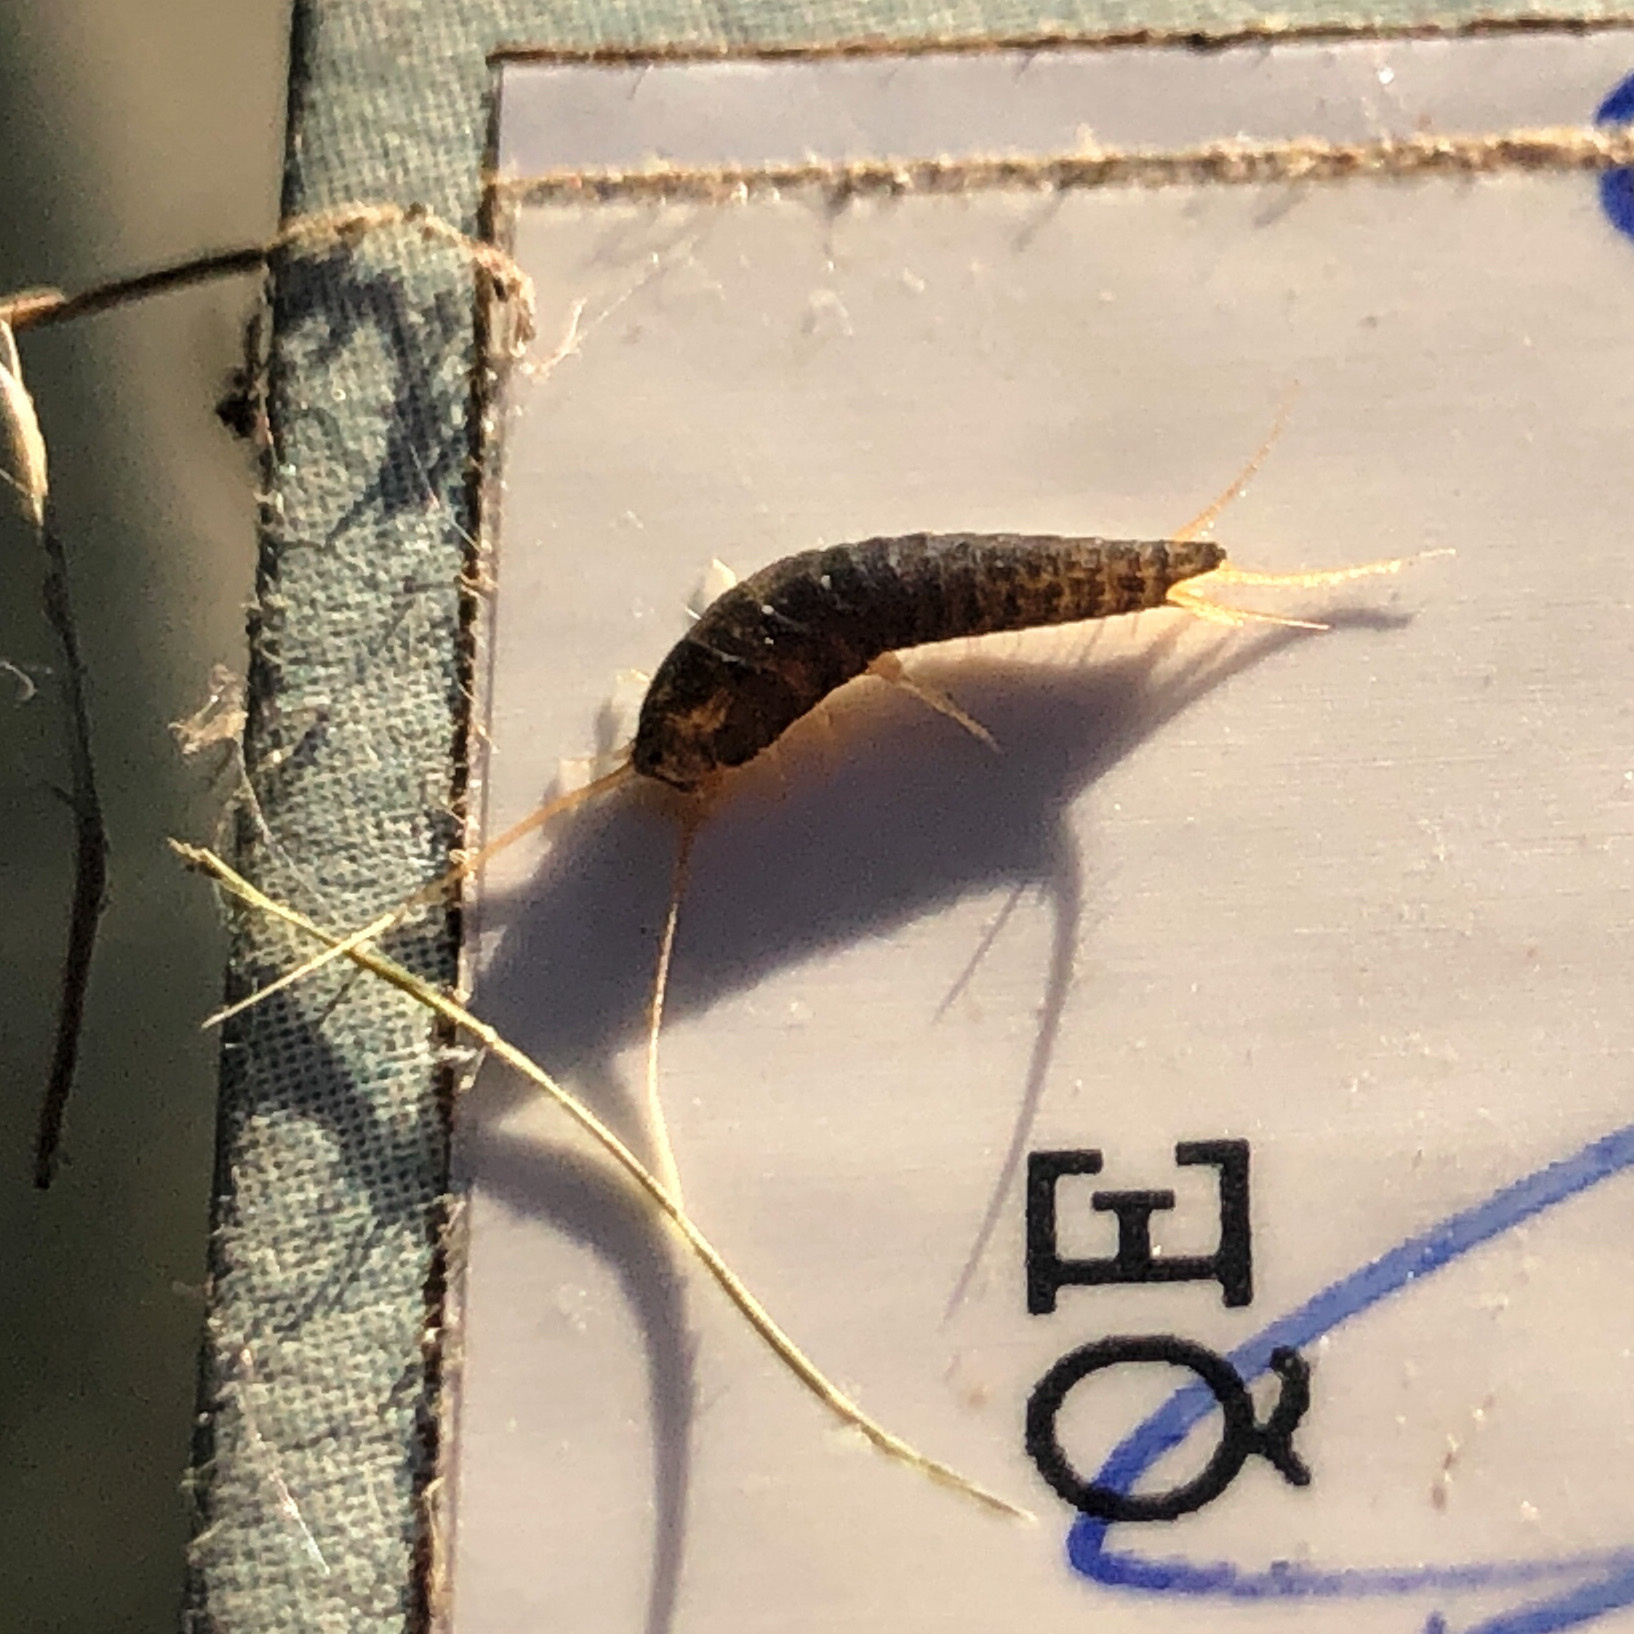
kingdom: Animalia
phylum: Arthropoda
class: Insecta
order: Zygentoma
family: Lepismatidae
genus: Lepisma
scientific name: Lepisma saccharinum
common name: Silverfish
